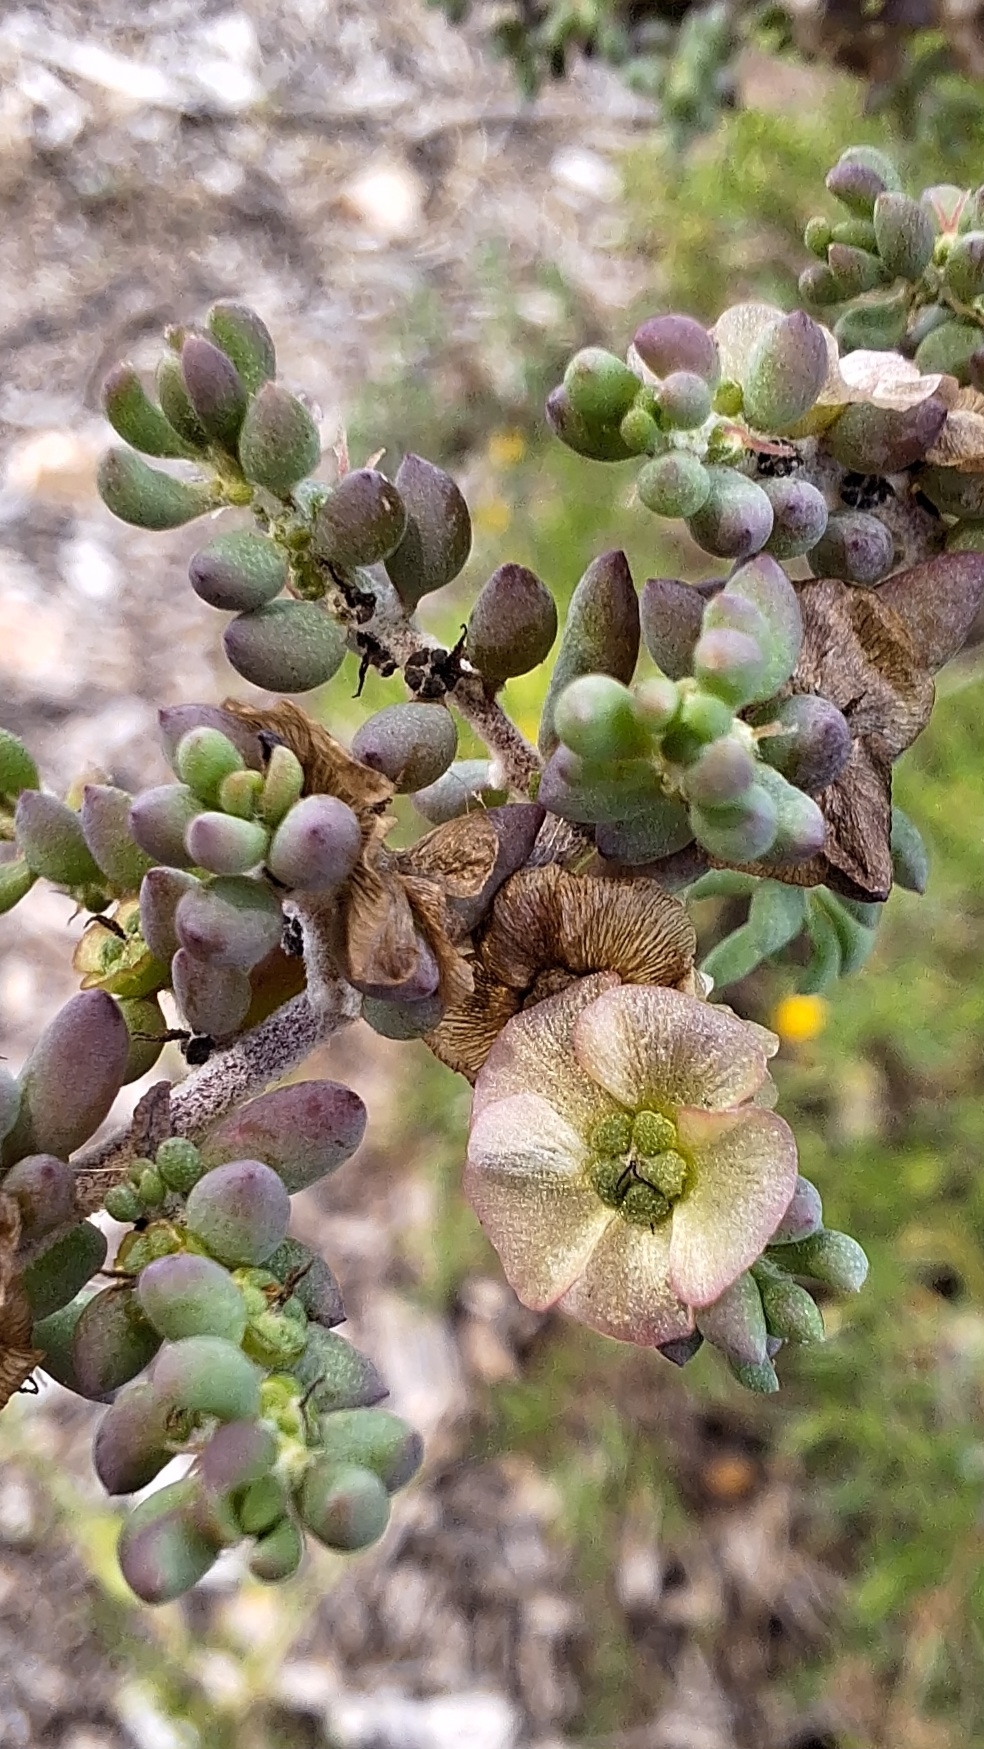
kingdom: Plantae
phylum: Tracheophyta
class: Magnoliopsida
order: Caryophyllales
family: Amaranthaceae
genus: Maireana
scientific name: Maireana brevifolia
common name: Eastern cottonbush
